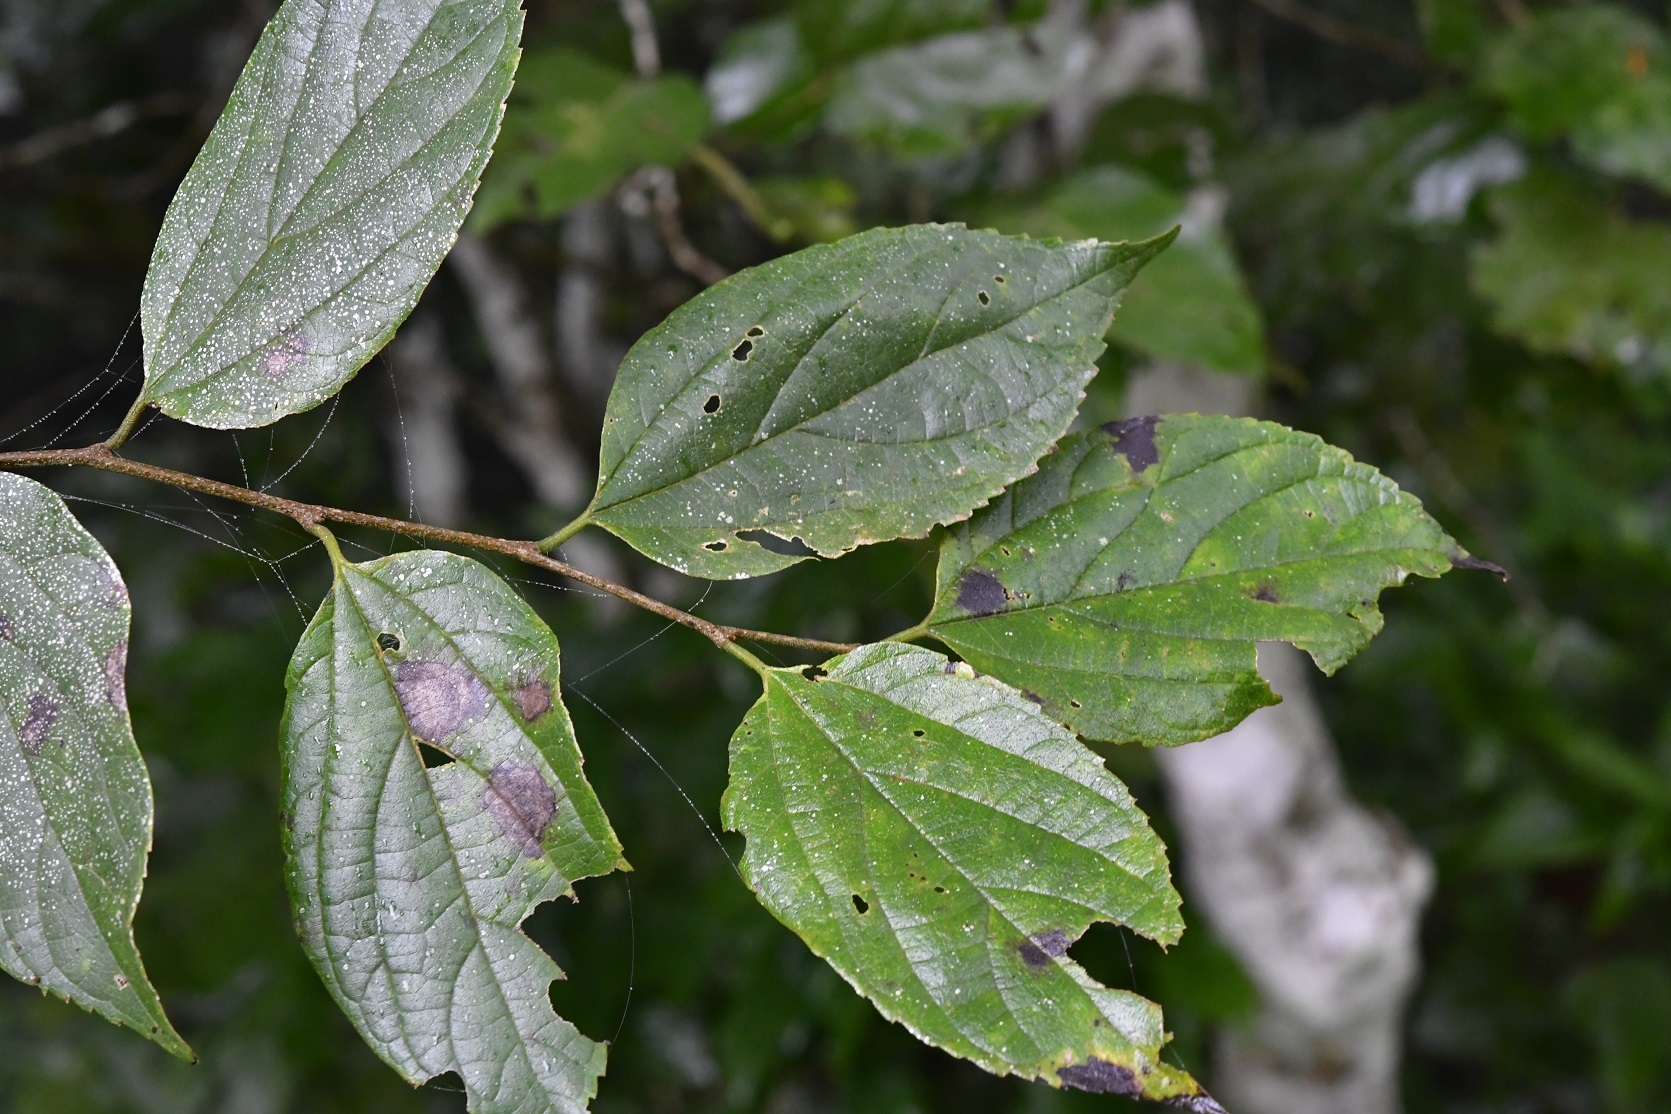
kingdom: Plantae
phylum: Tracheophyta
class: Magnoliopsida
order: Rosales
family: Rhamnaceae
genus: Colubrina
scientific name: Colubrina arborescens
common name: Wild coffee
